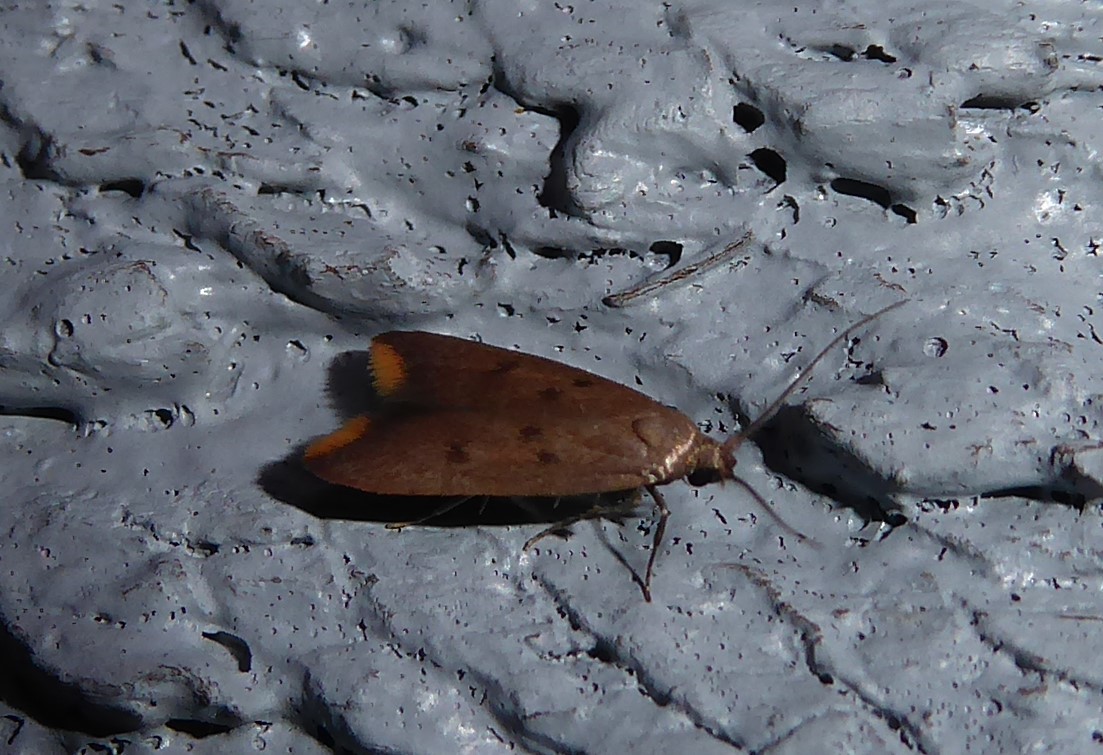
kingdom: Animalia
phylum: Arthropoda
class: Insecta
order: Lepidoptera
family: Oecophoridae
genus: Tachystola
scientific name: Tachystola acroxantha
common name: Ruddy streak
